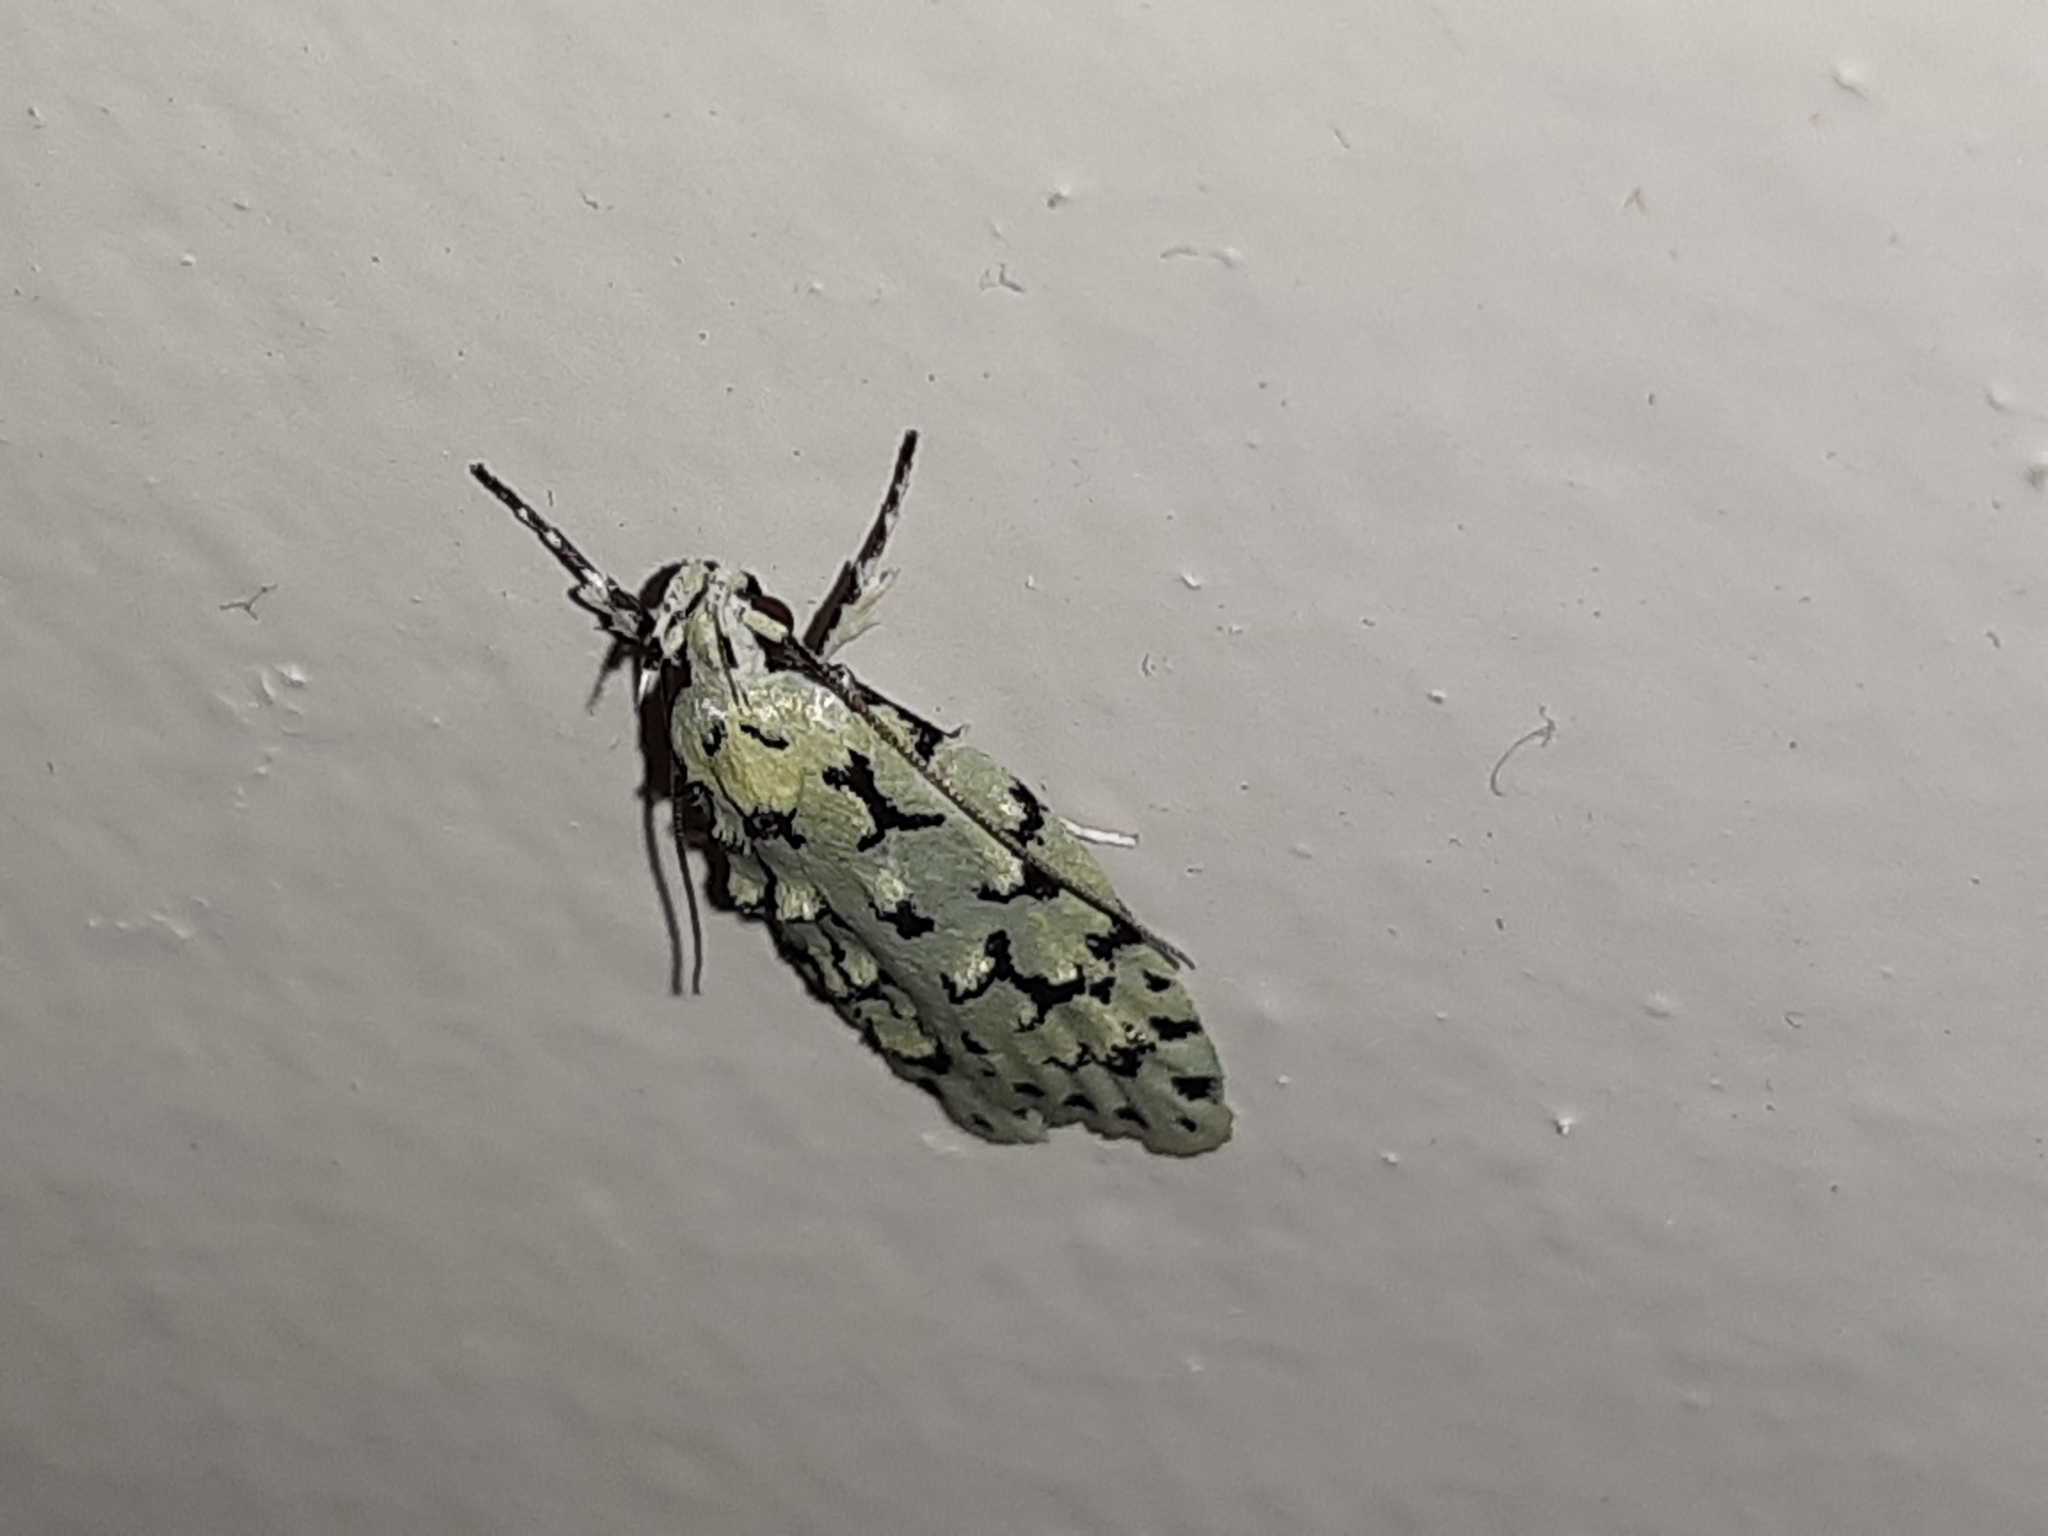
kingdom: Animalia
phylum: Arthropoda
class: Insecta
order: Lepidoptera
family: Oecophoridae
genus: Izatha
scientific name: Izatha huttoni
